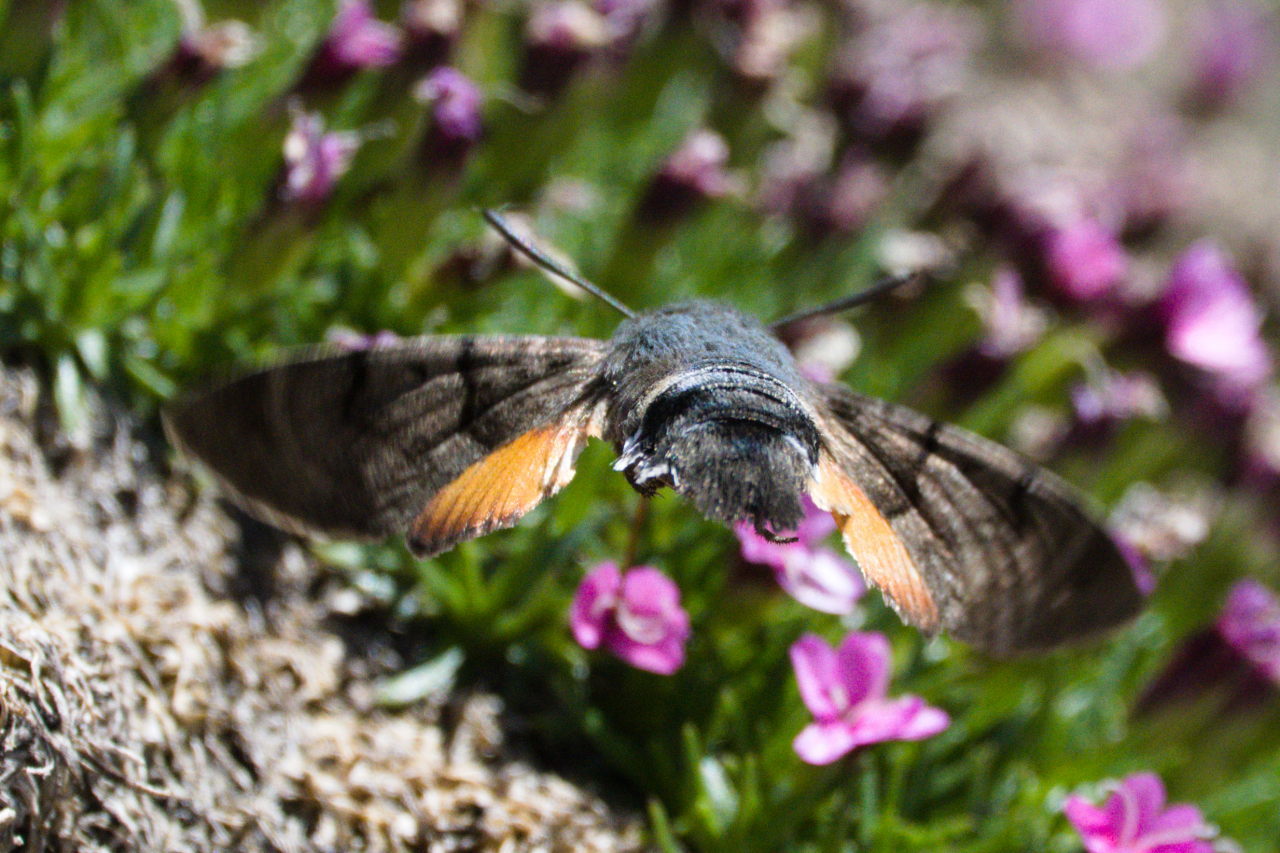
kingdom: Animalia
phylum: Arthropoda
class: Insecta
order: Lepidoptera
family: Sphingidae
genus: Macroglossum
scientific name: Macroglossum stellatarum
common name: Humming-bird hawk-moth
